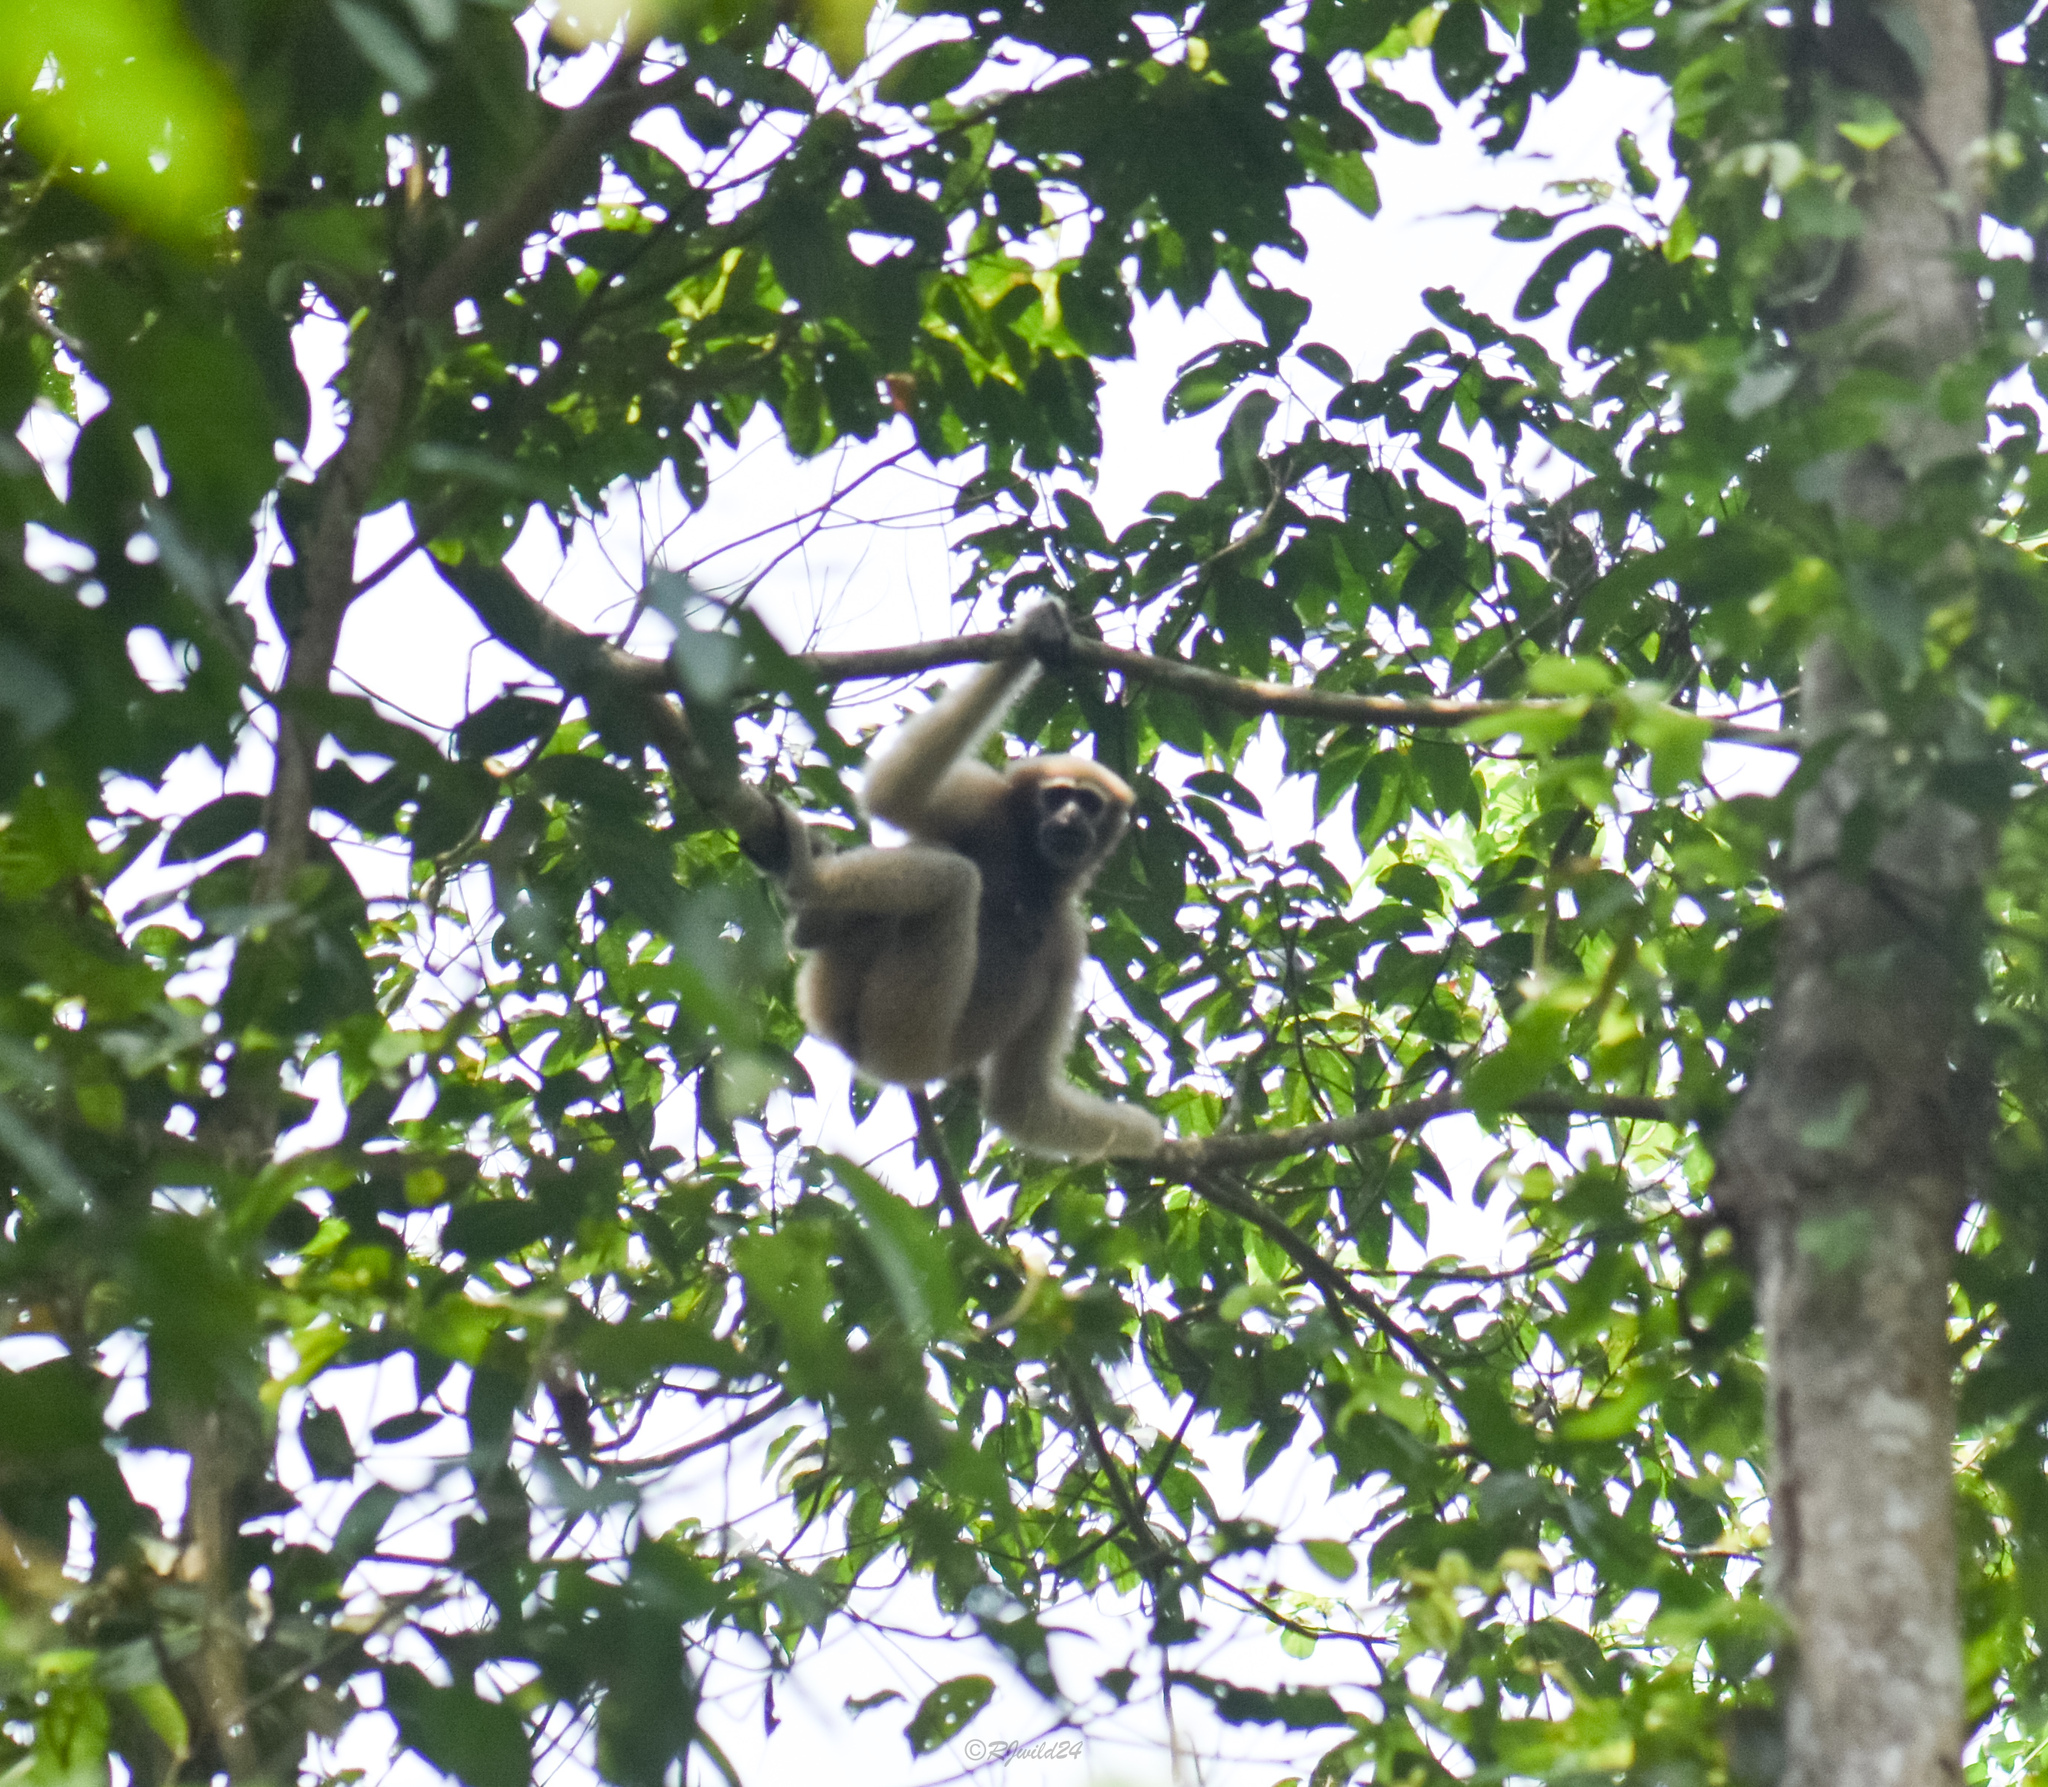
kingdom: Animalia
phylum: Chordata
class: Mammalia
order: Primates
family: Hylobatidae
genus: Hoolock
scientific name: Hoolock hoolock
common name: Western hoolock gibbon
